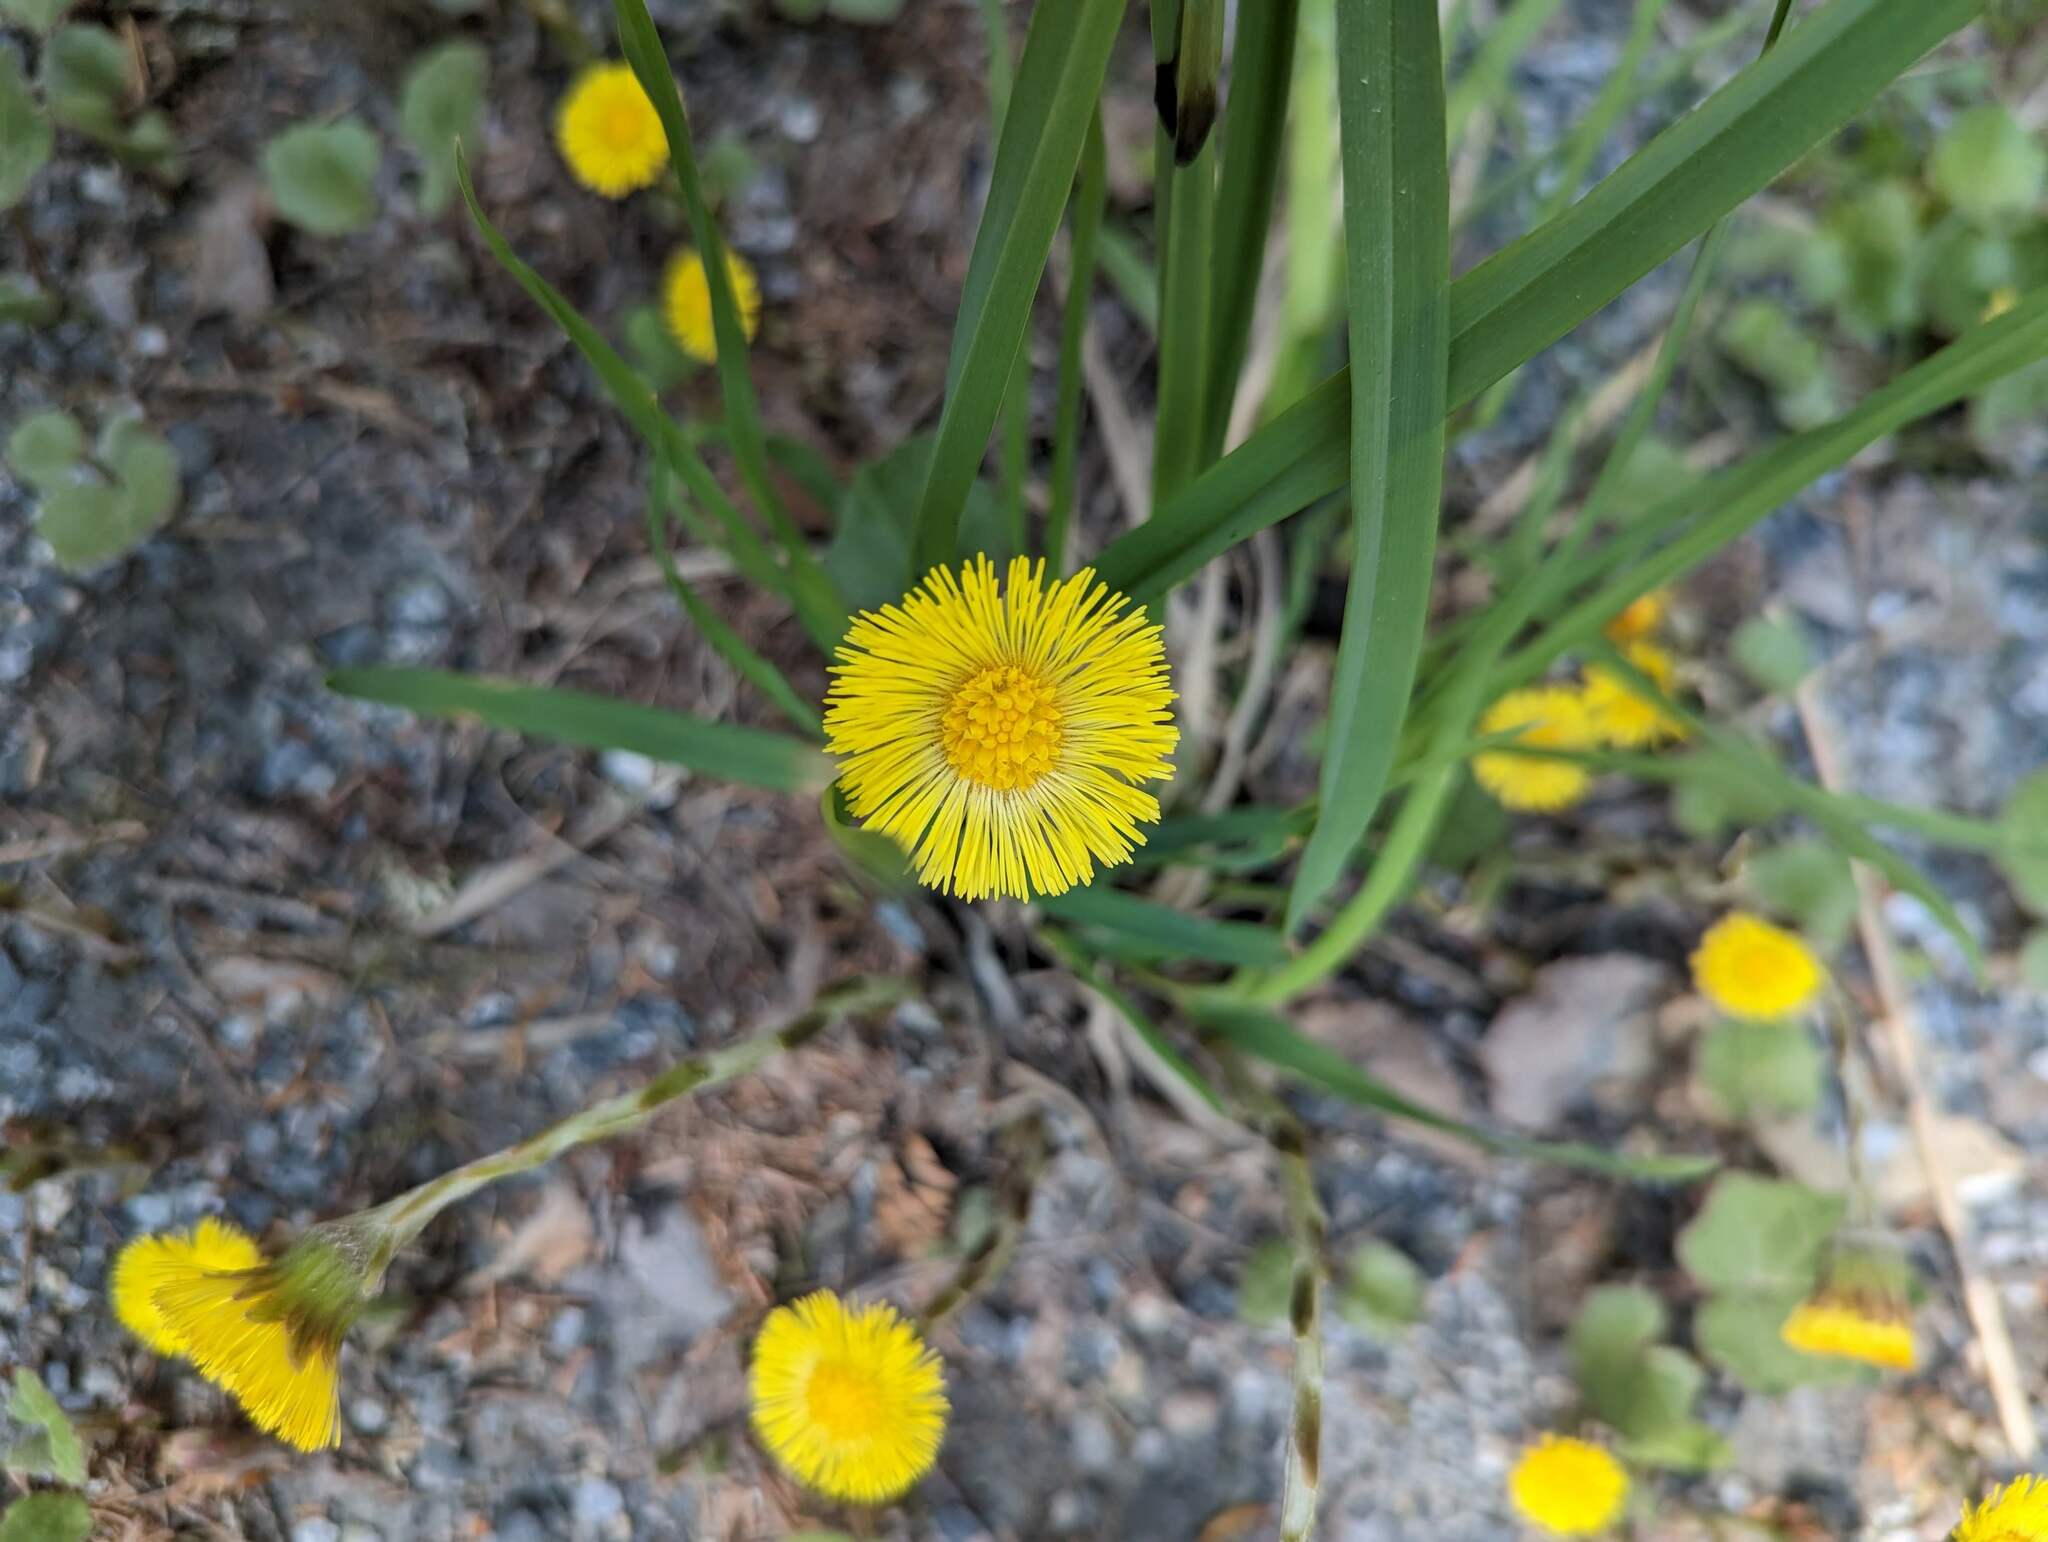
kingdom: Plantae
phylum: Tracheophyta
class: Magnoliopsida
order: Asterales
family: Asteraceae
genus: Tussilago
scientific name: Tussilago farfara
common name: Coltsfoot
